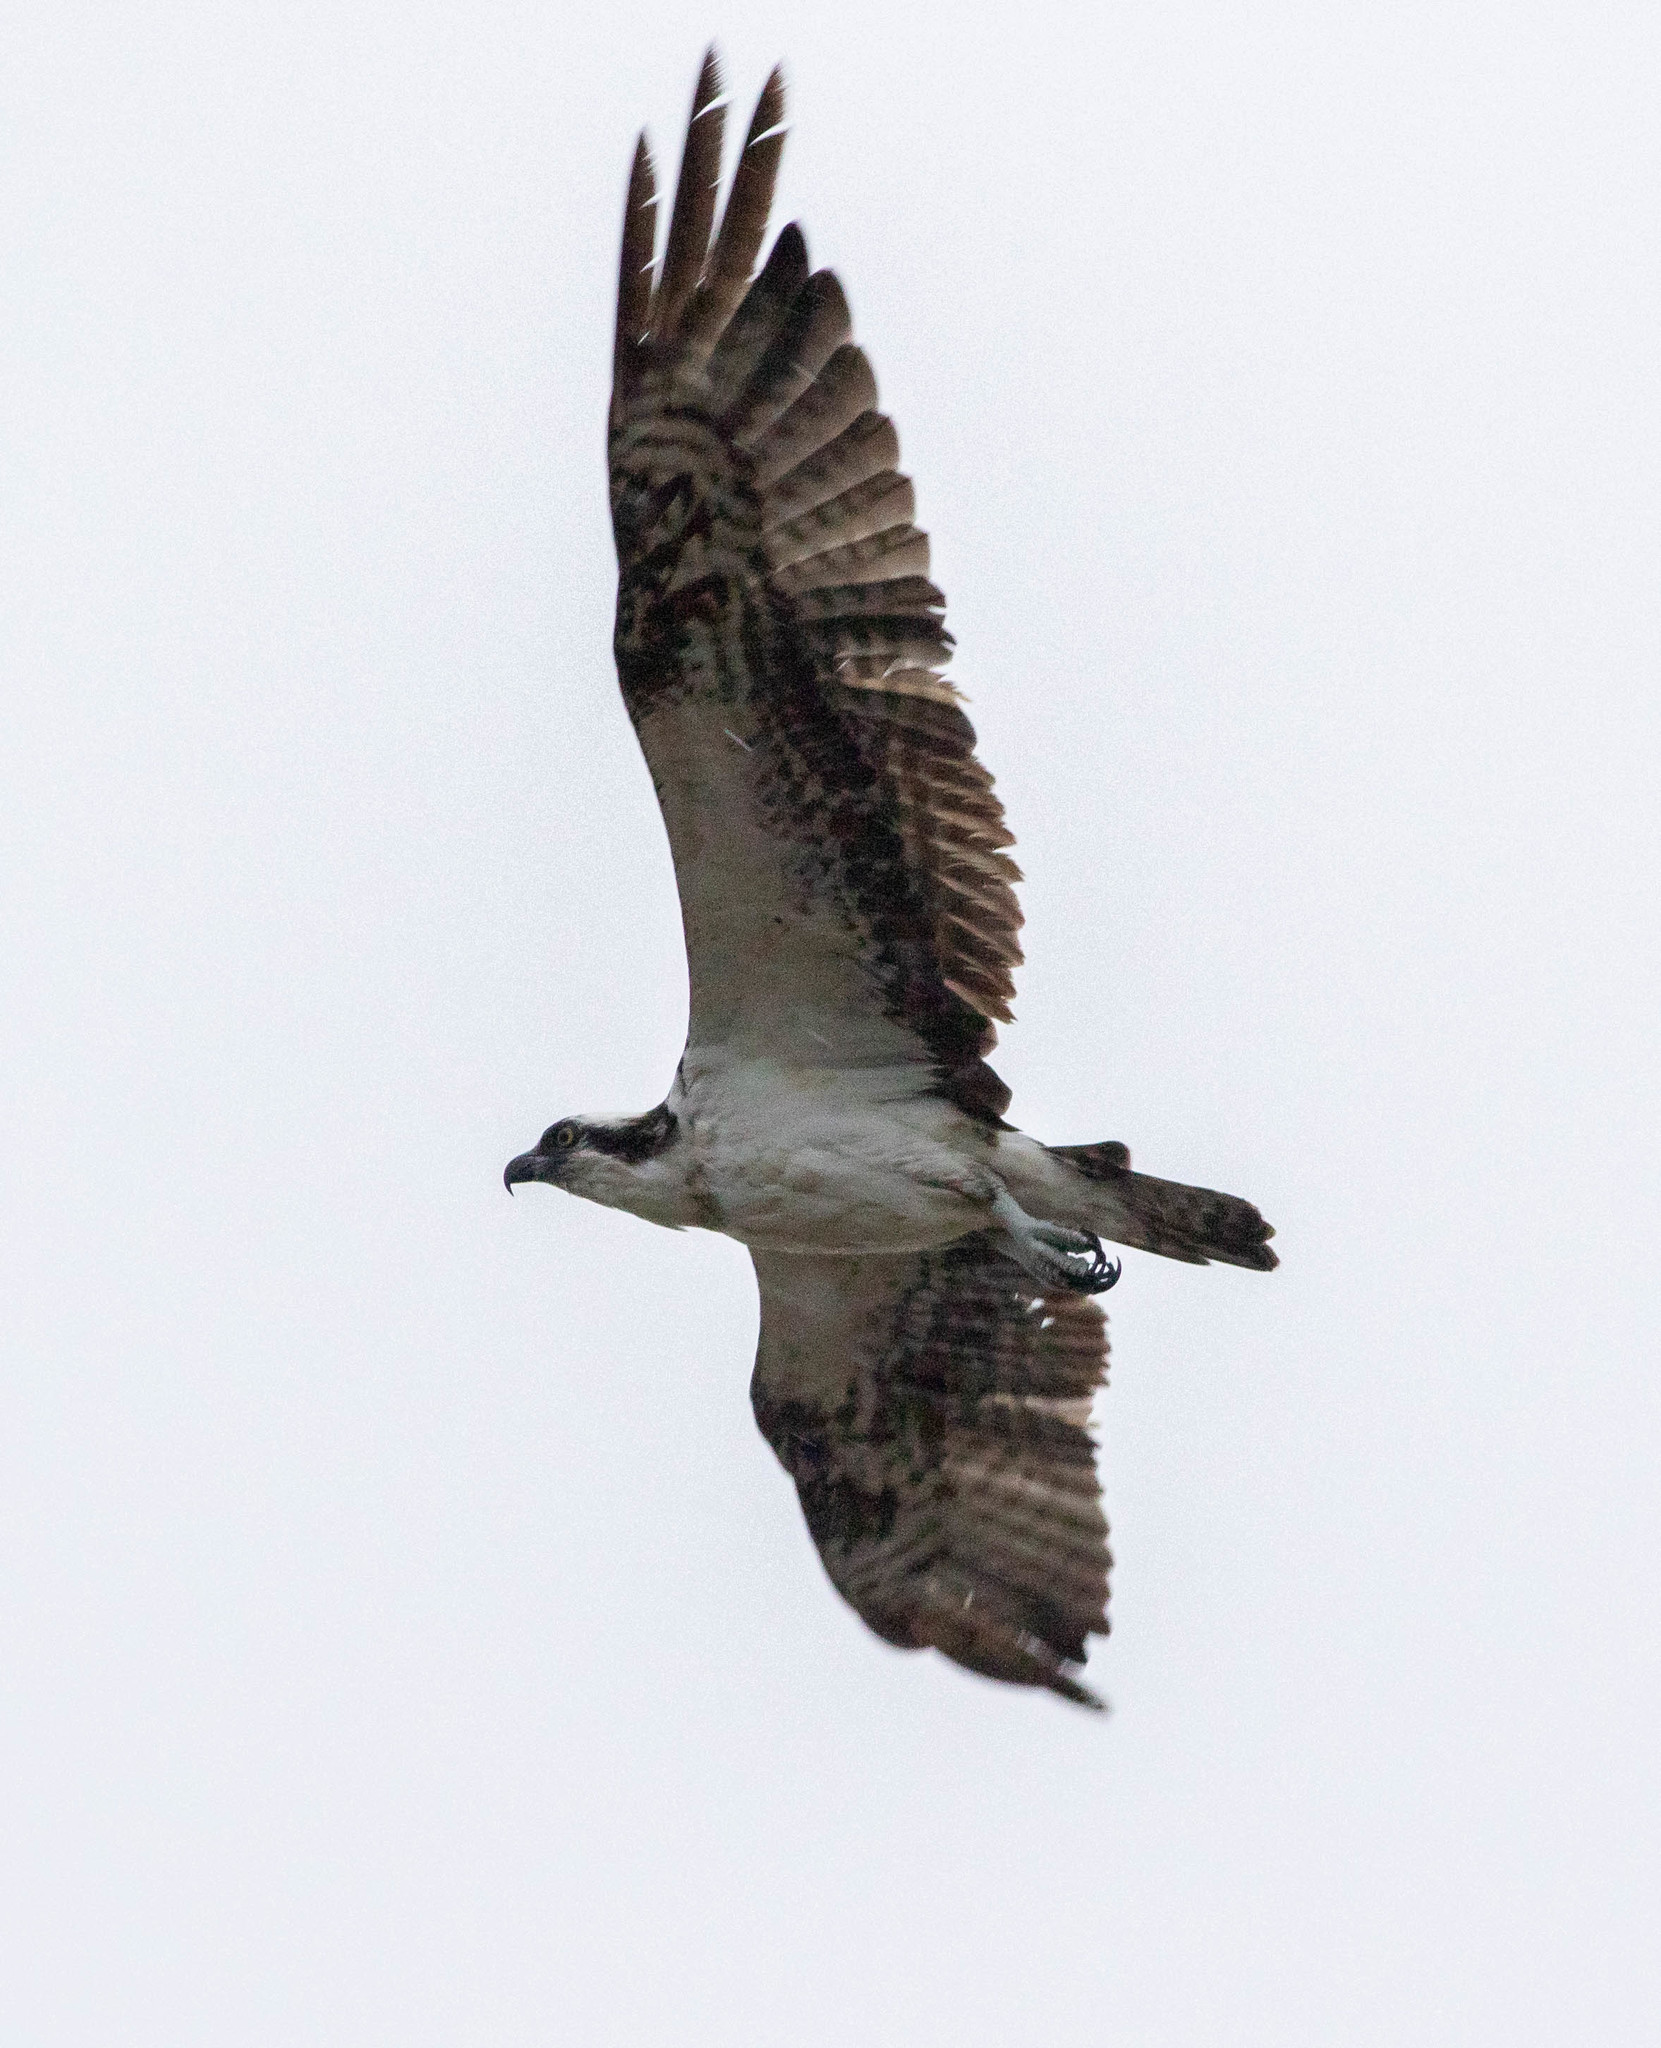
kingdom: Animalia
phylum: Chordata
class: Aves
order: Accipitriformes
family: Pandionidae
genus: Pandion
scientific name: Pandion haliaetus
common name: Osprey
